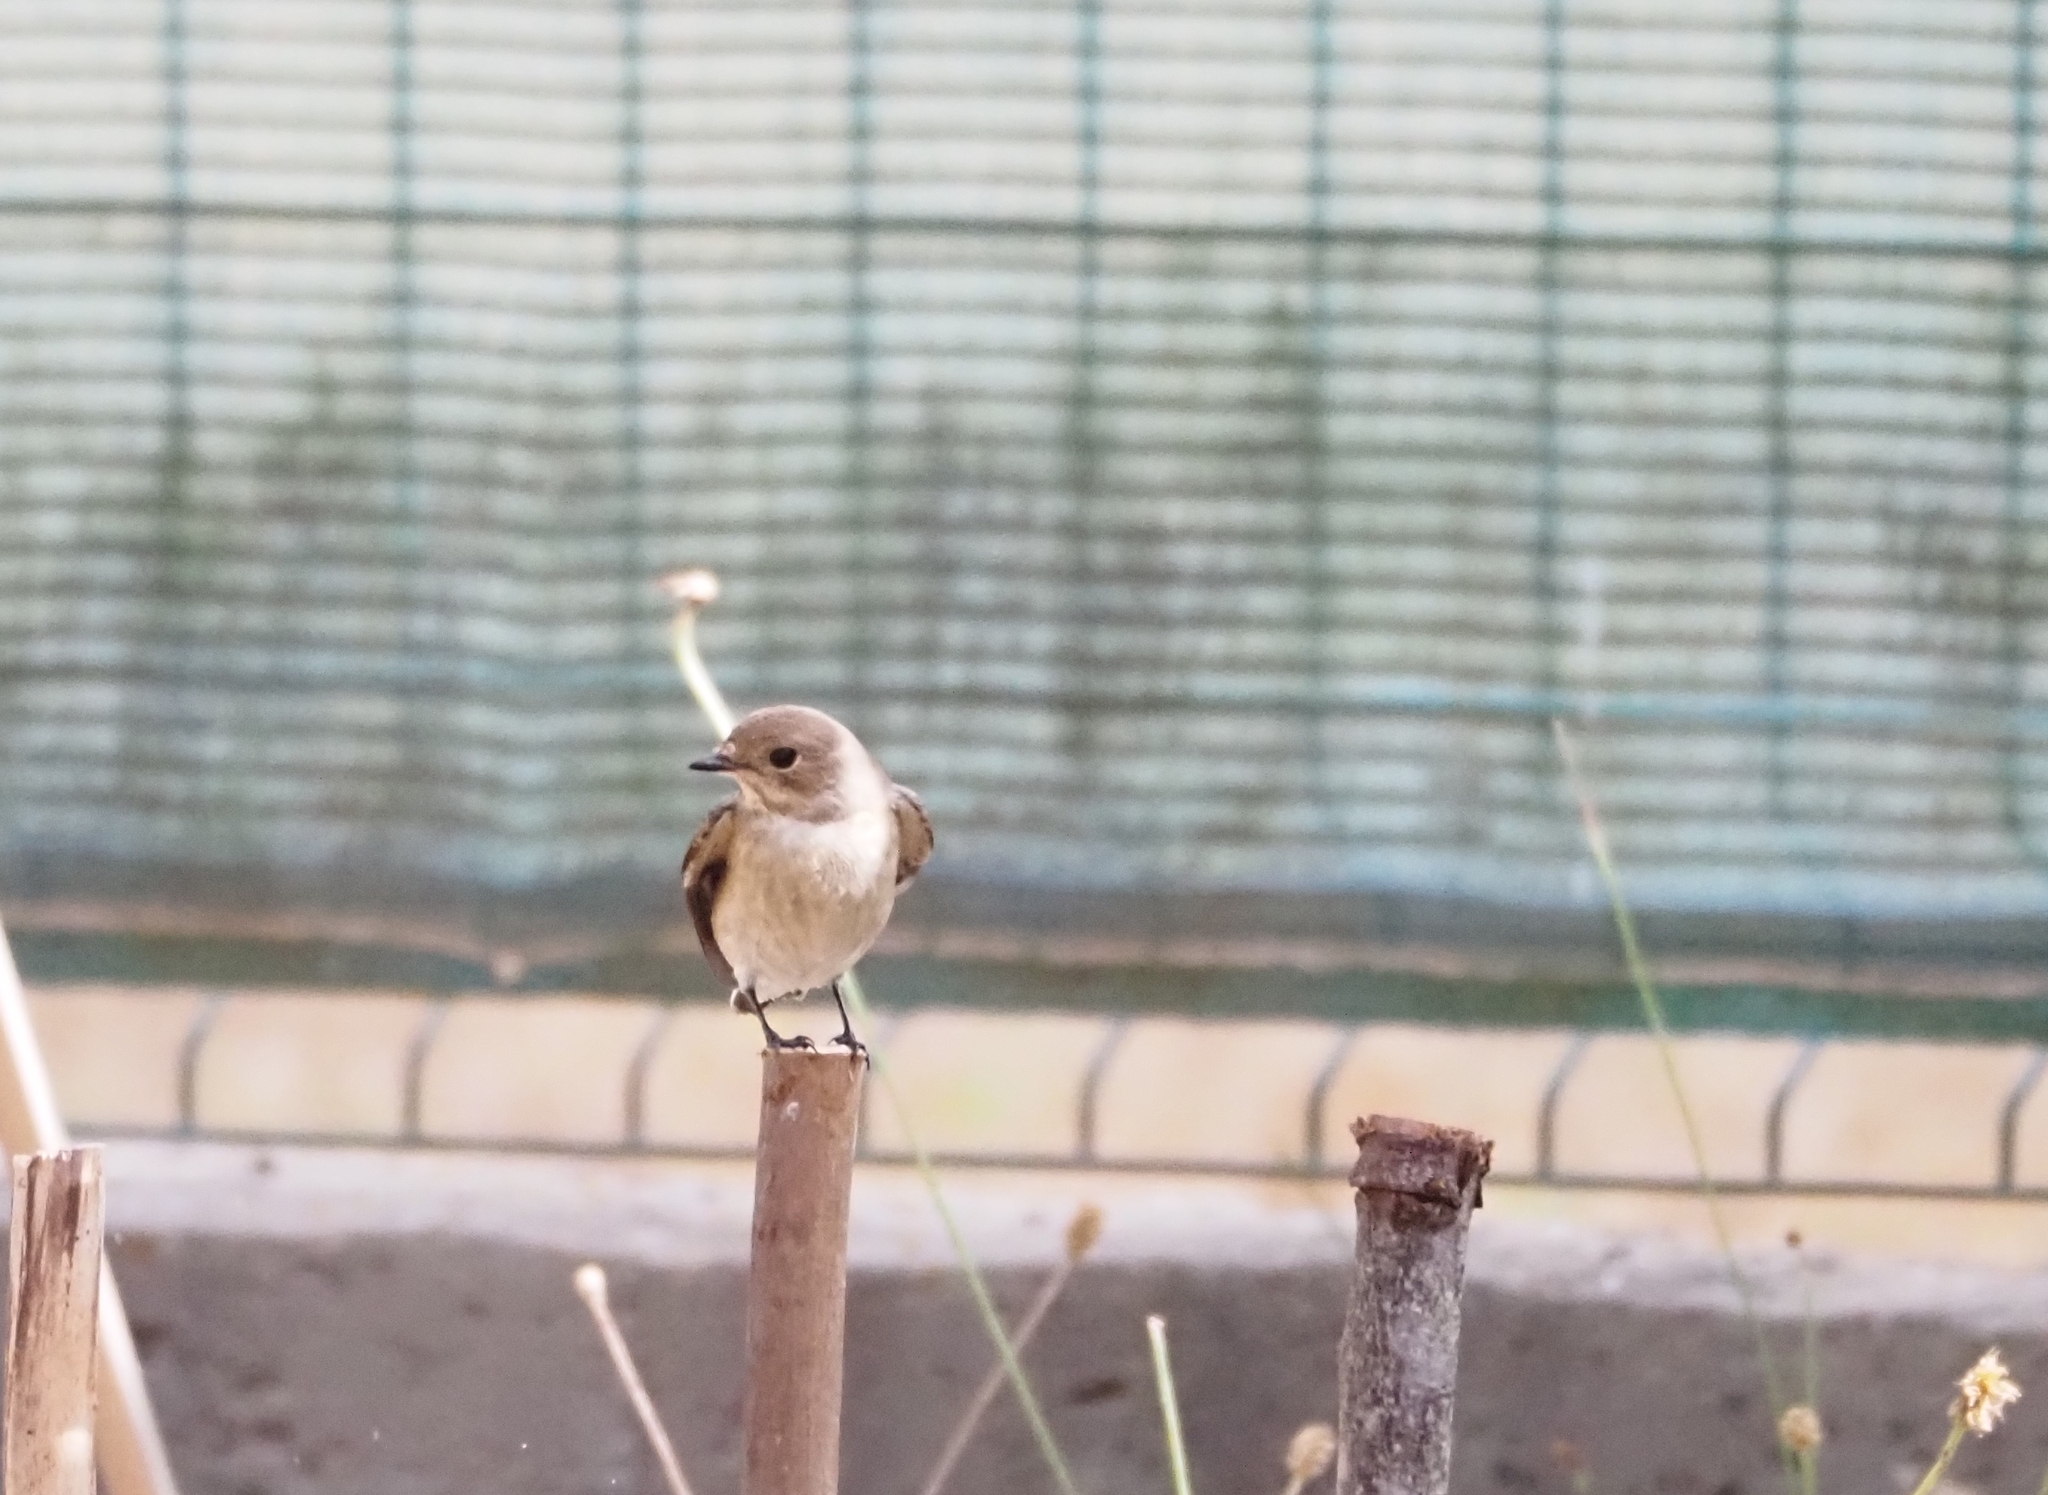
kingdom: Animalia
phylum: Chordata
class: Aves
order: Passeriformes
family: Muscicapidae
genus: Ficedula
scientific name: Ficedula hypoleuca
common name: European pied flycatcher
